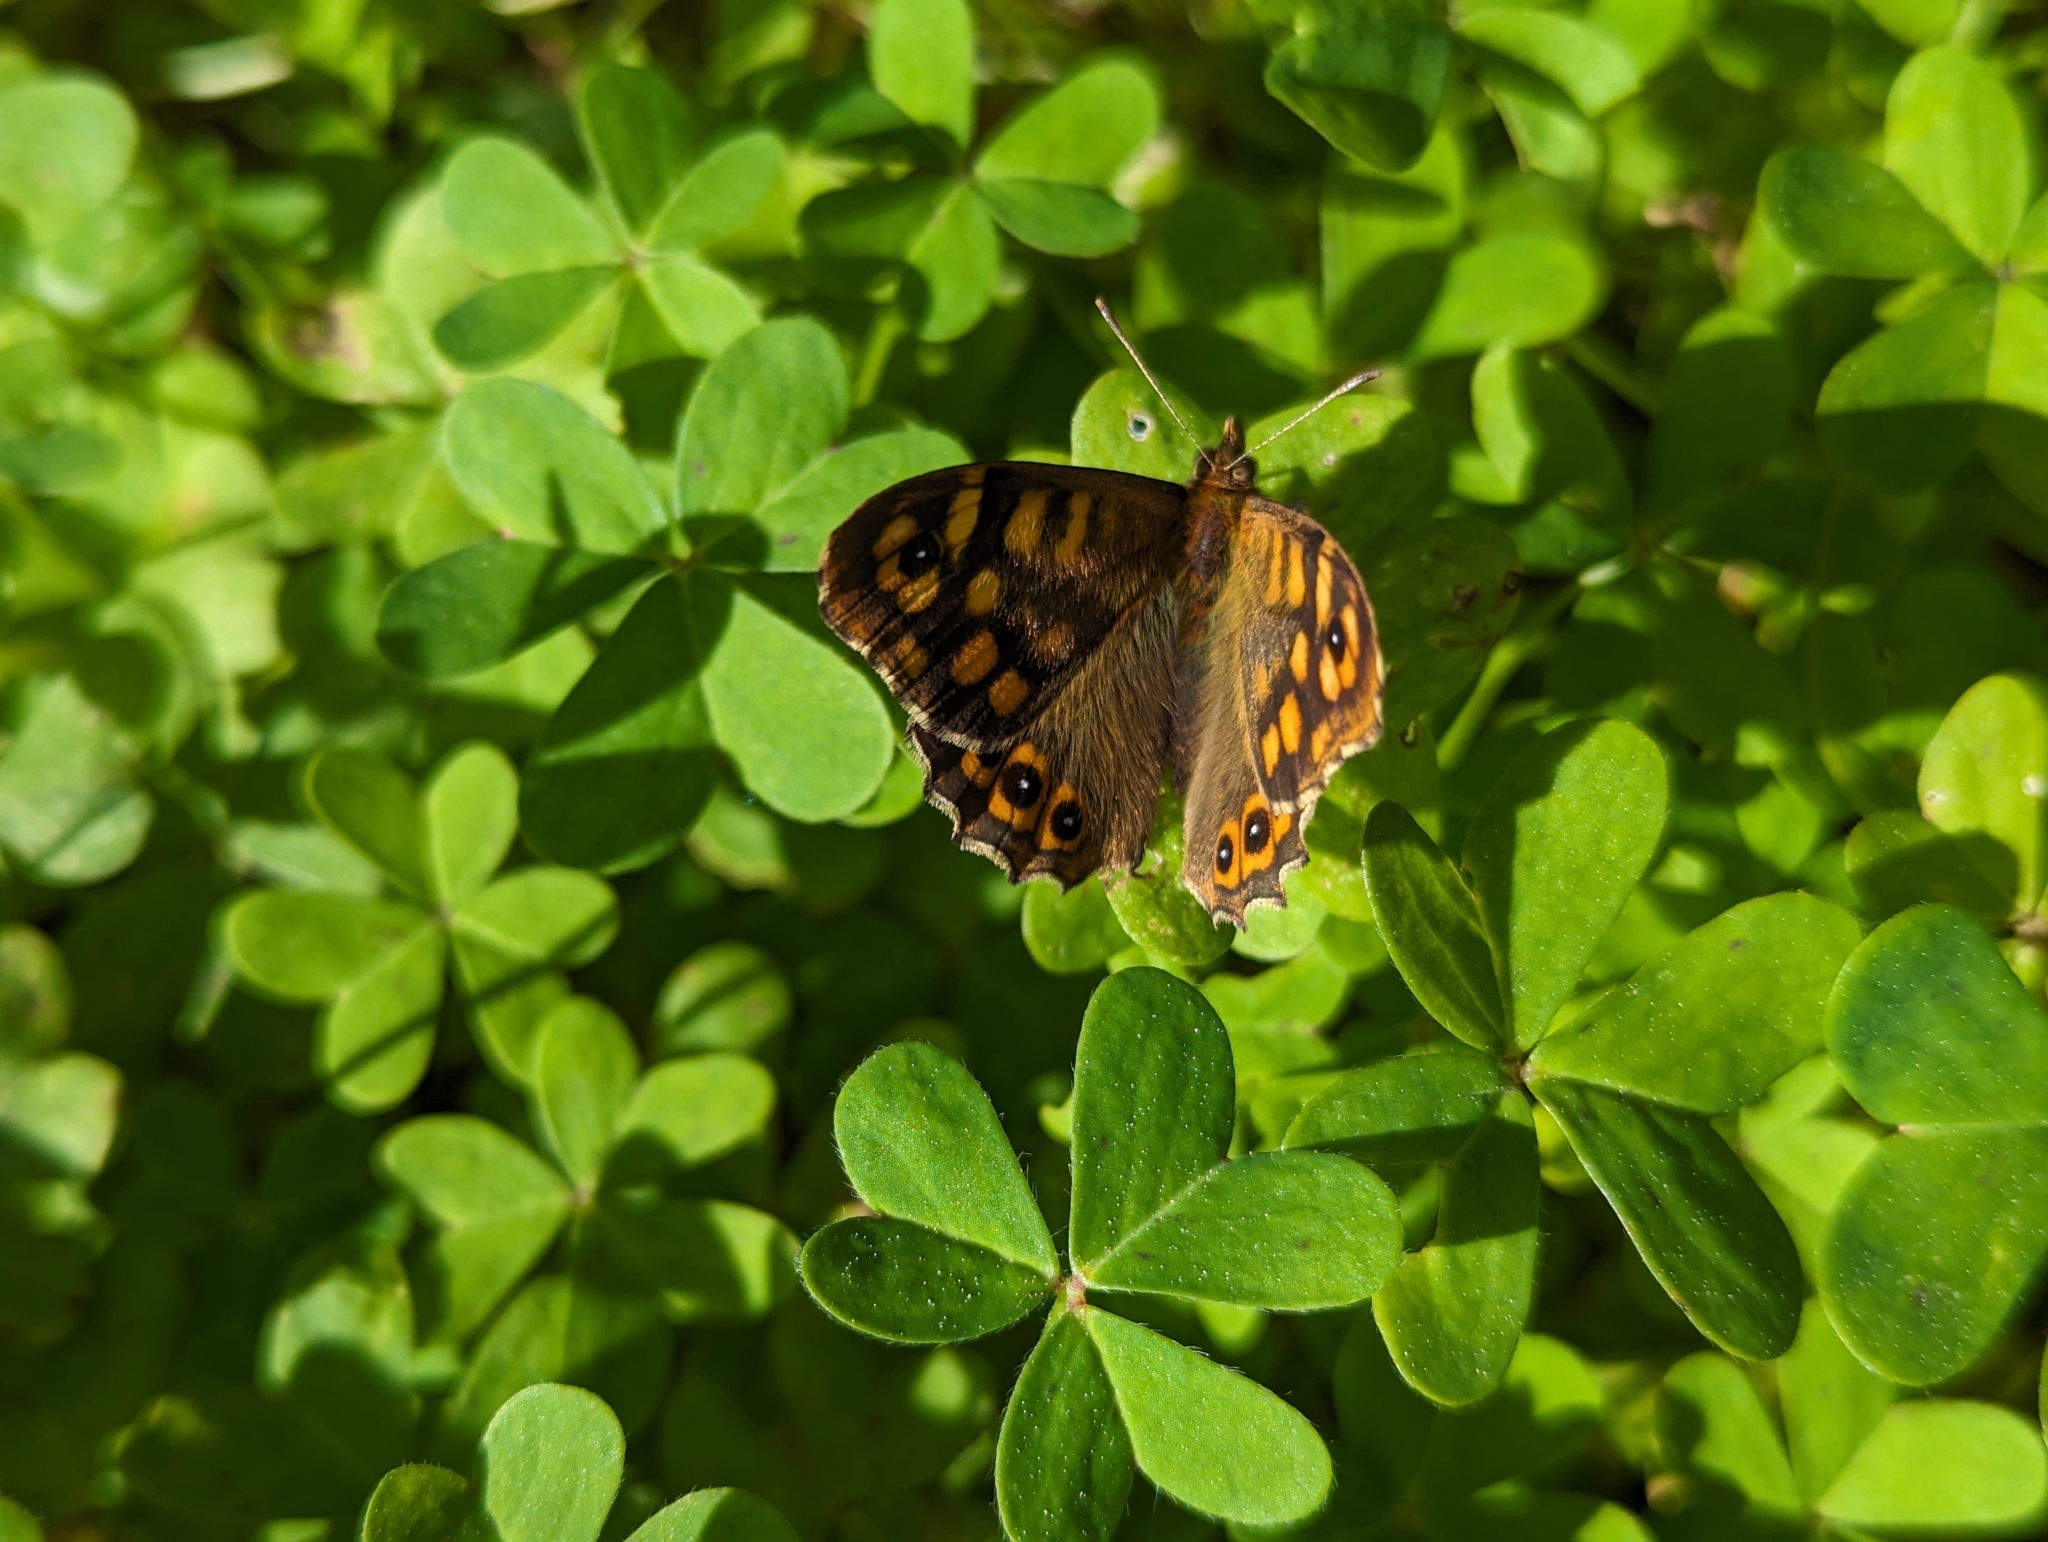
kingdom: Animalia
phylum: Arthropoda
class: Insecta
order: Lepidoptera
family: Nymphalidae
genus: Pararge
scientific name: Pararge aegeria
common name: Speckled wood
